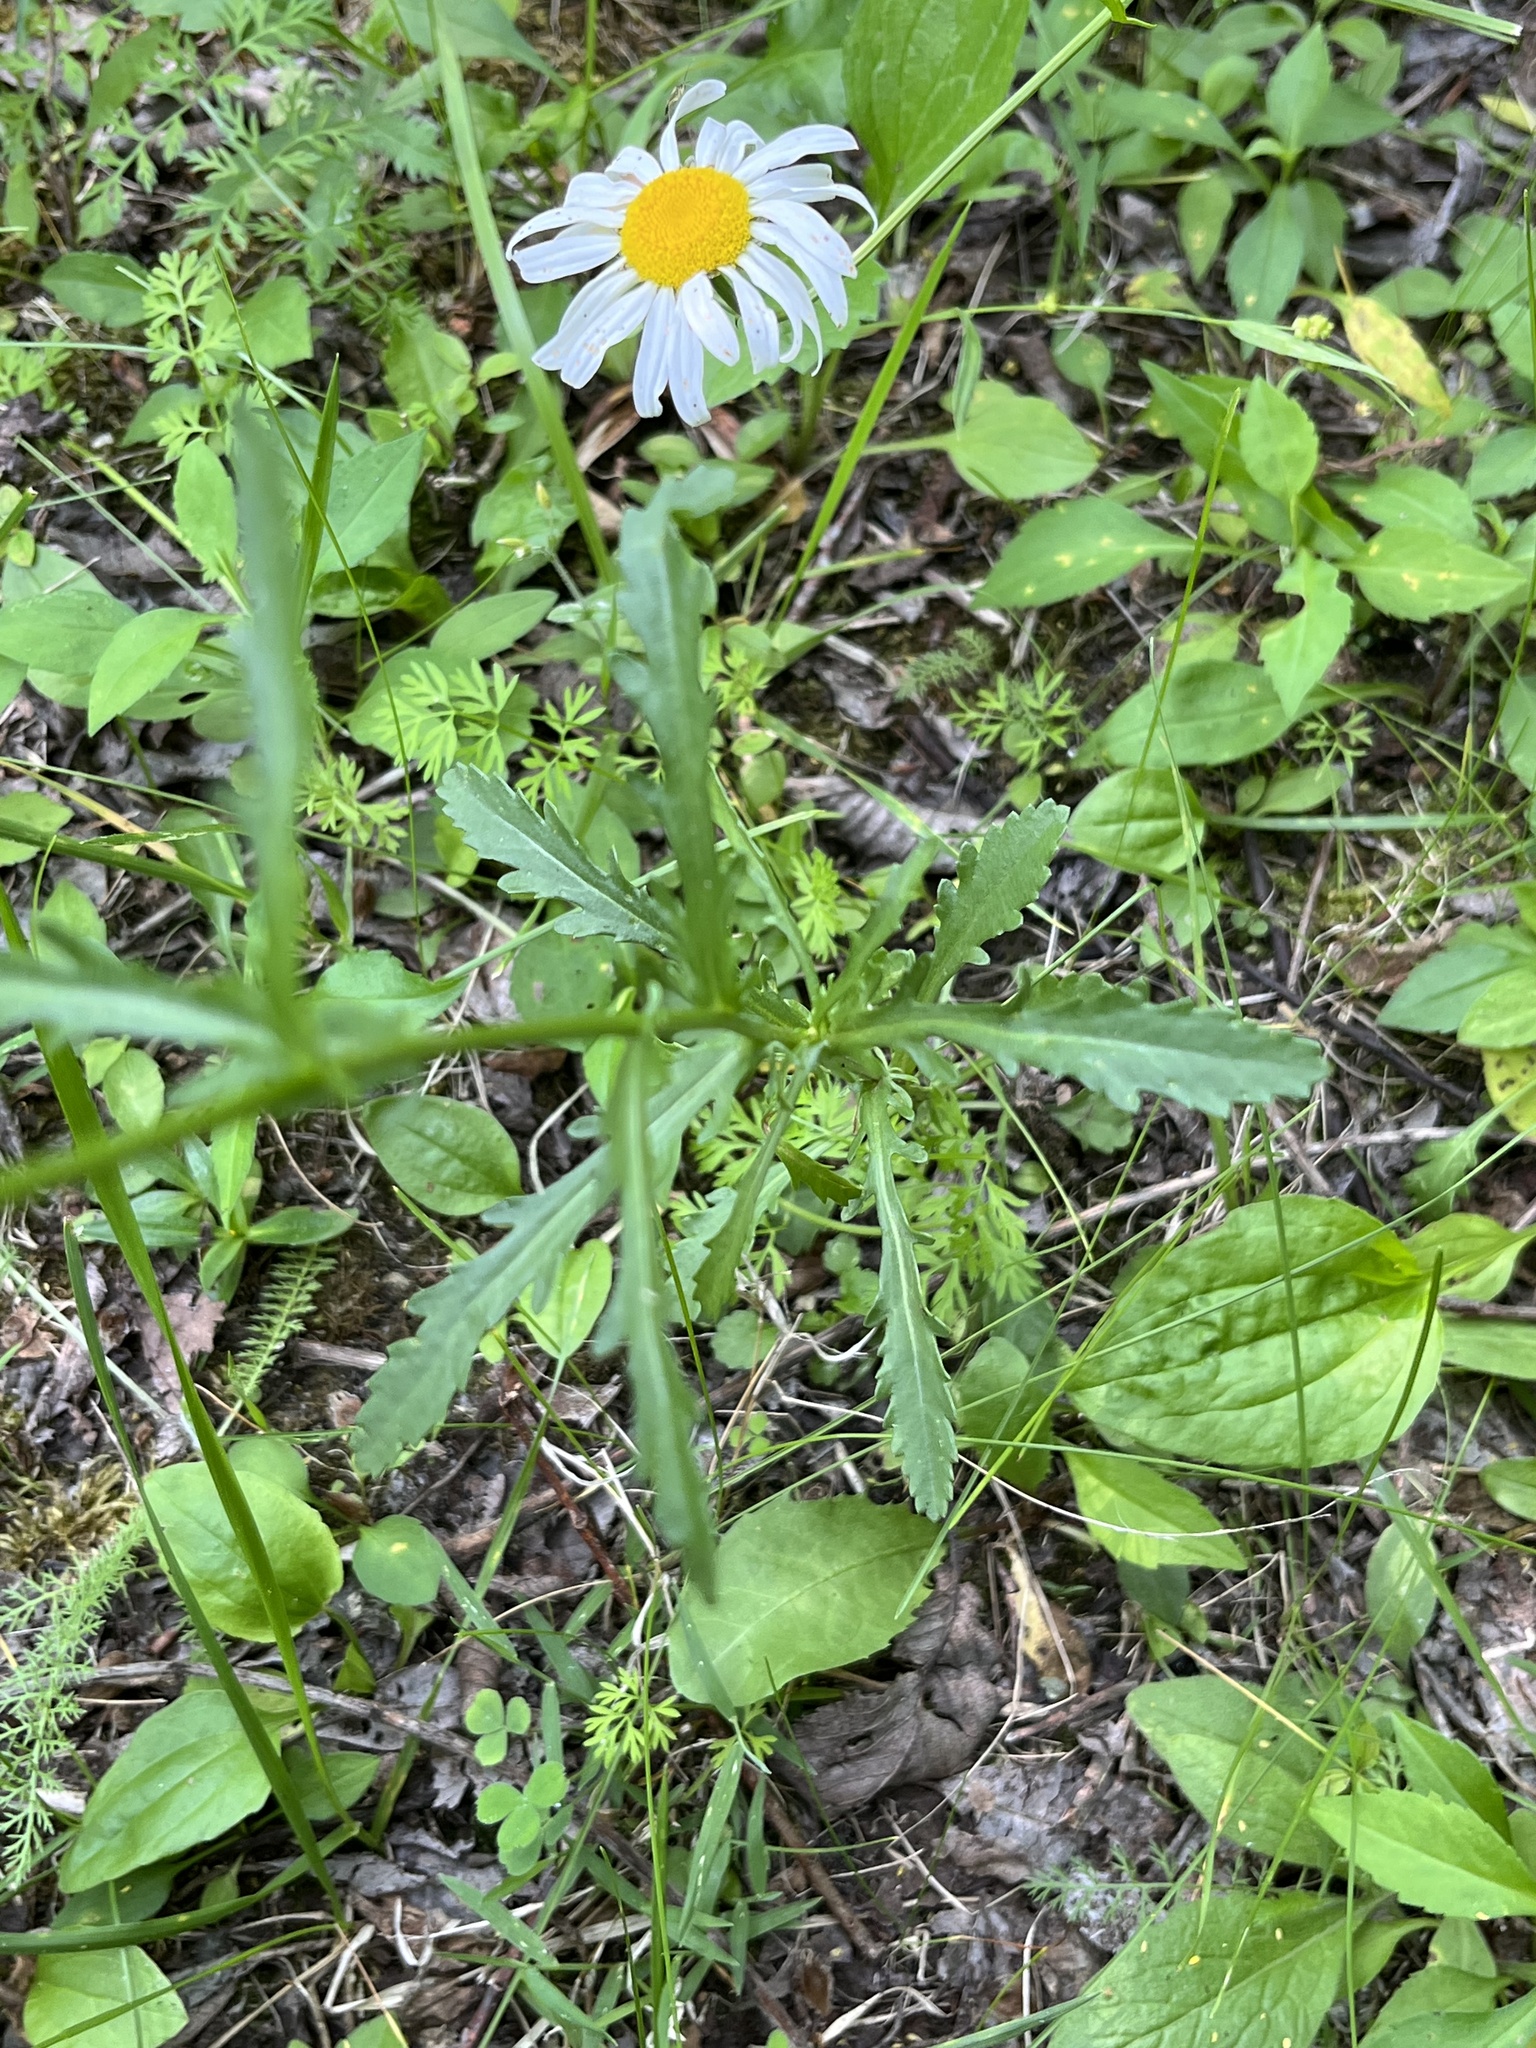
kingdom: Plantae
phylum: Tracheophyta
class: Magnoliopsida
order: Asterales
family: Asteraceae
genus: Leucanthemum
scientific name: Leucanthemum vulgare
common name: Oxeye daisy
